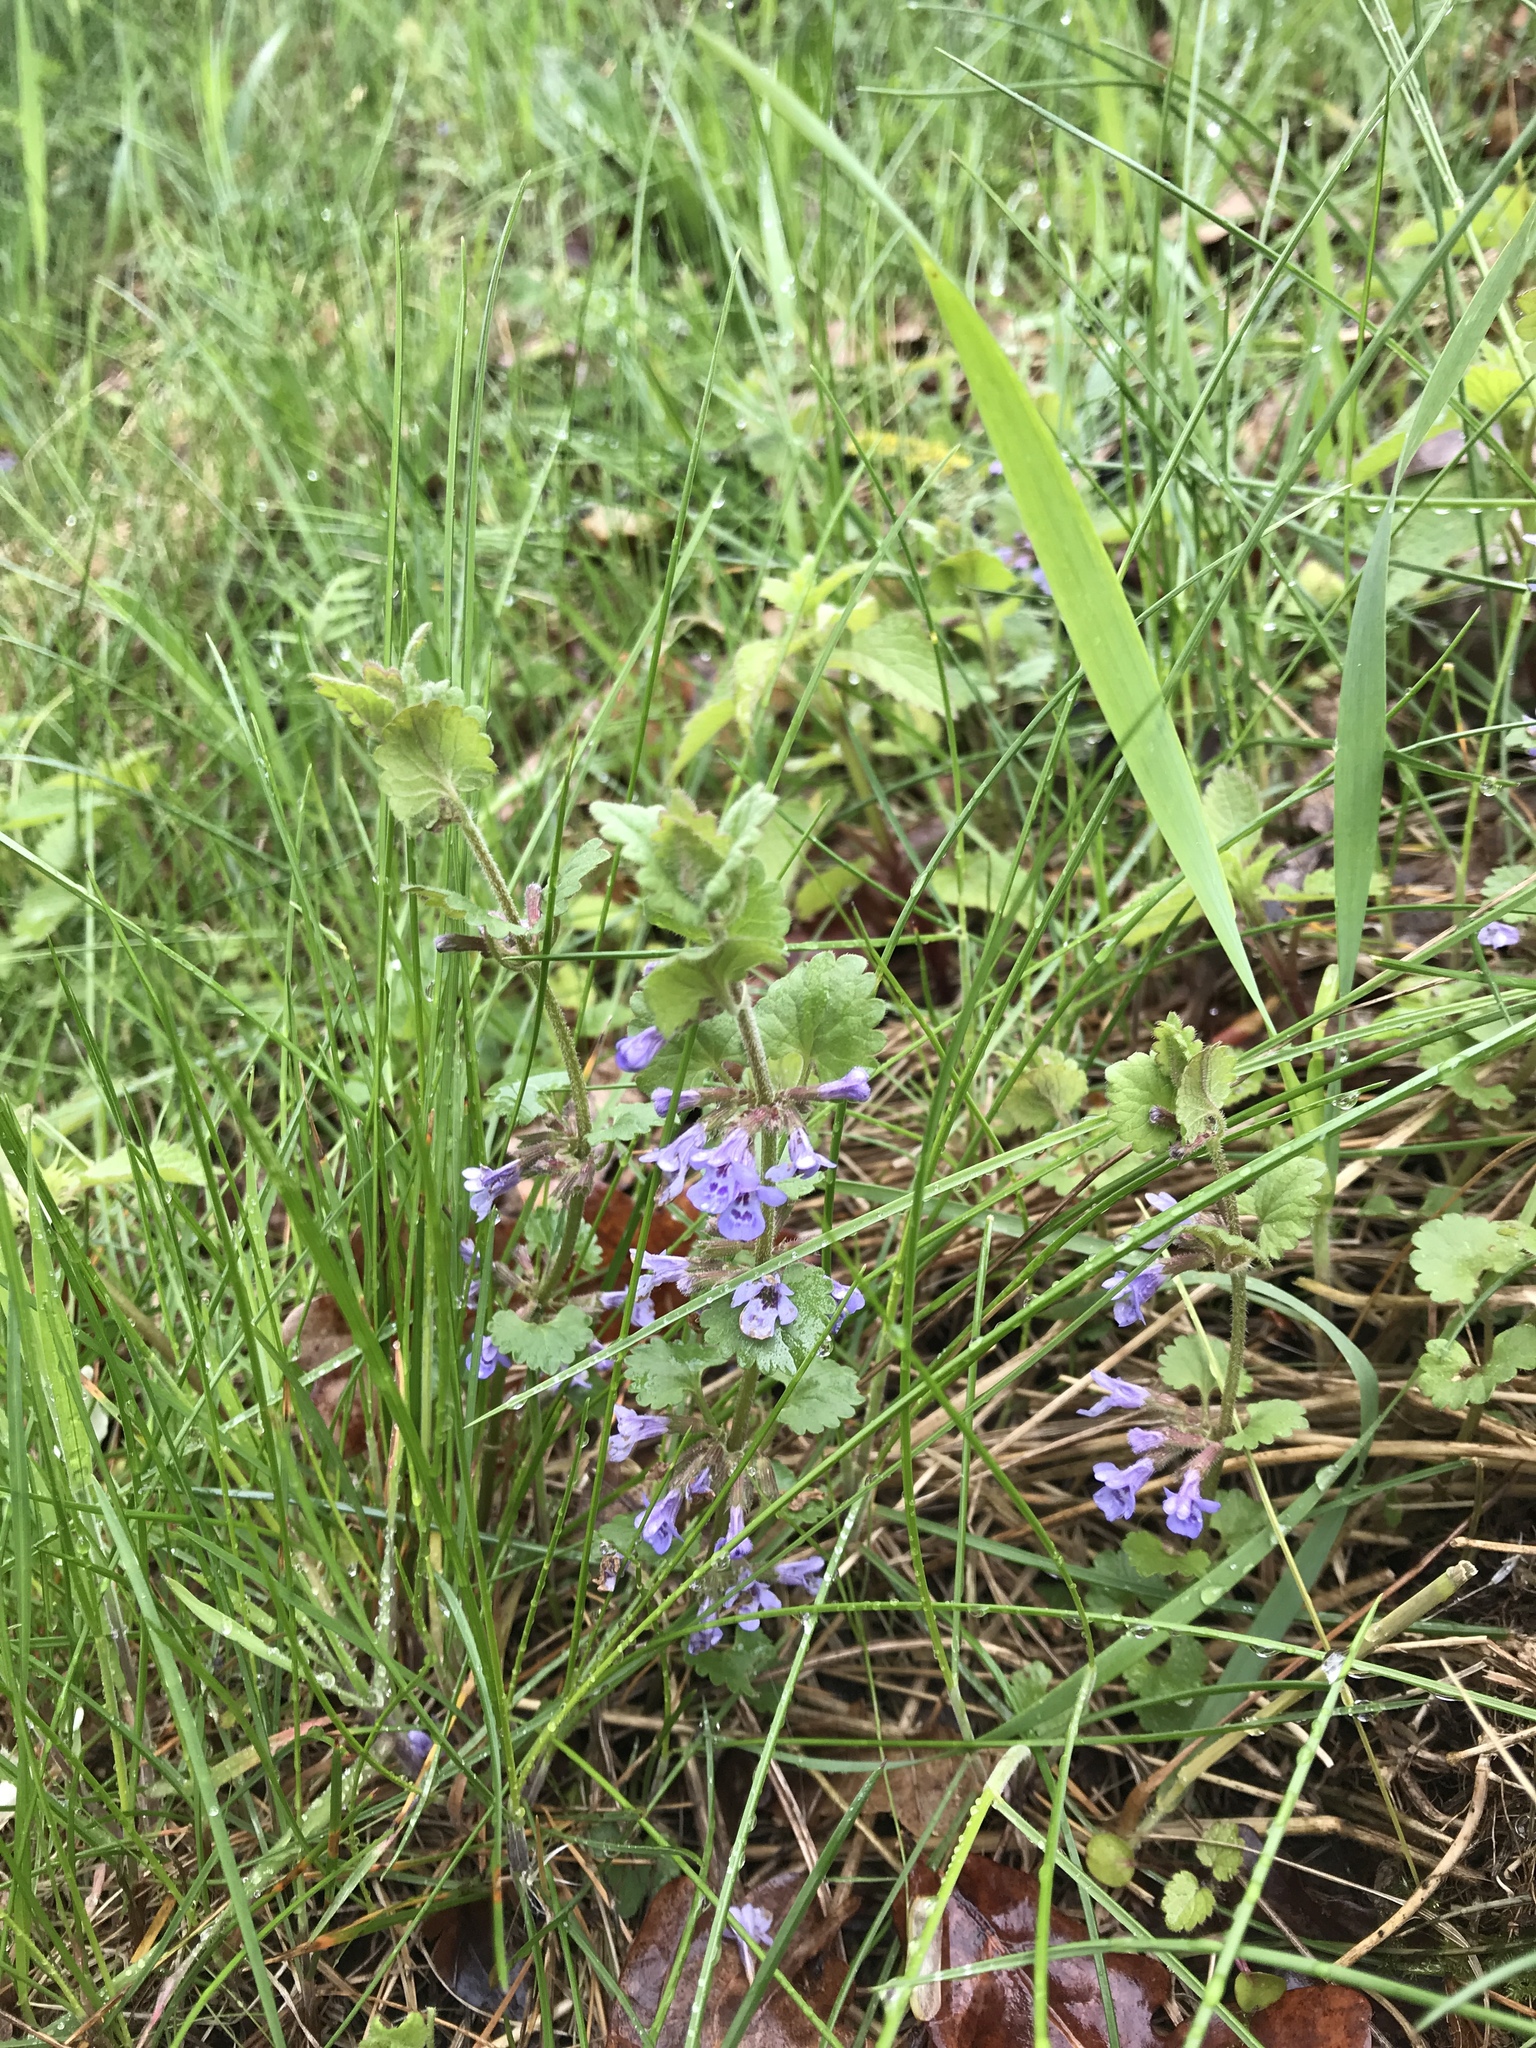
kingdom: Plantae
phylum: Tracheophyta
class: Magnoliopsida
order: Lamiales
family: Lamiaceae
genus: Glechoma
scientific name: Glechoma hederacea
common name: Ground ivy
